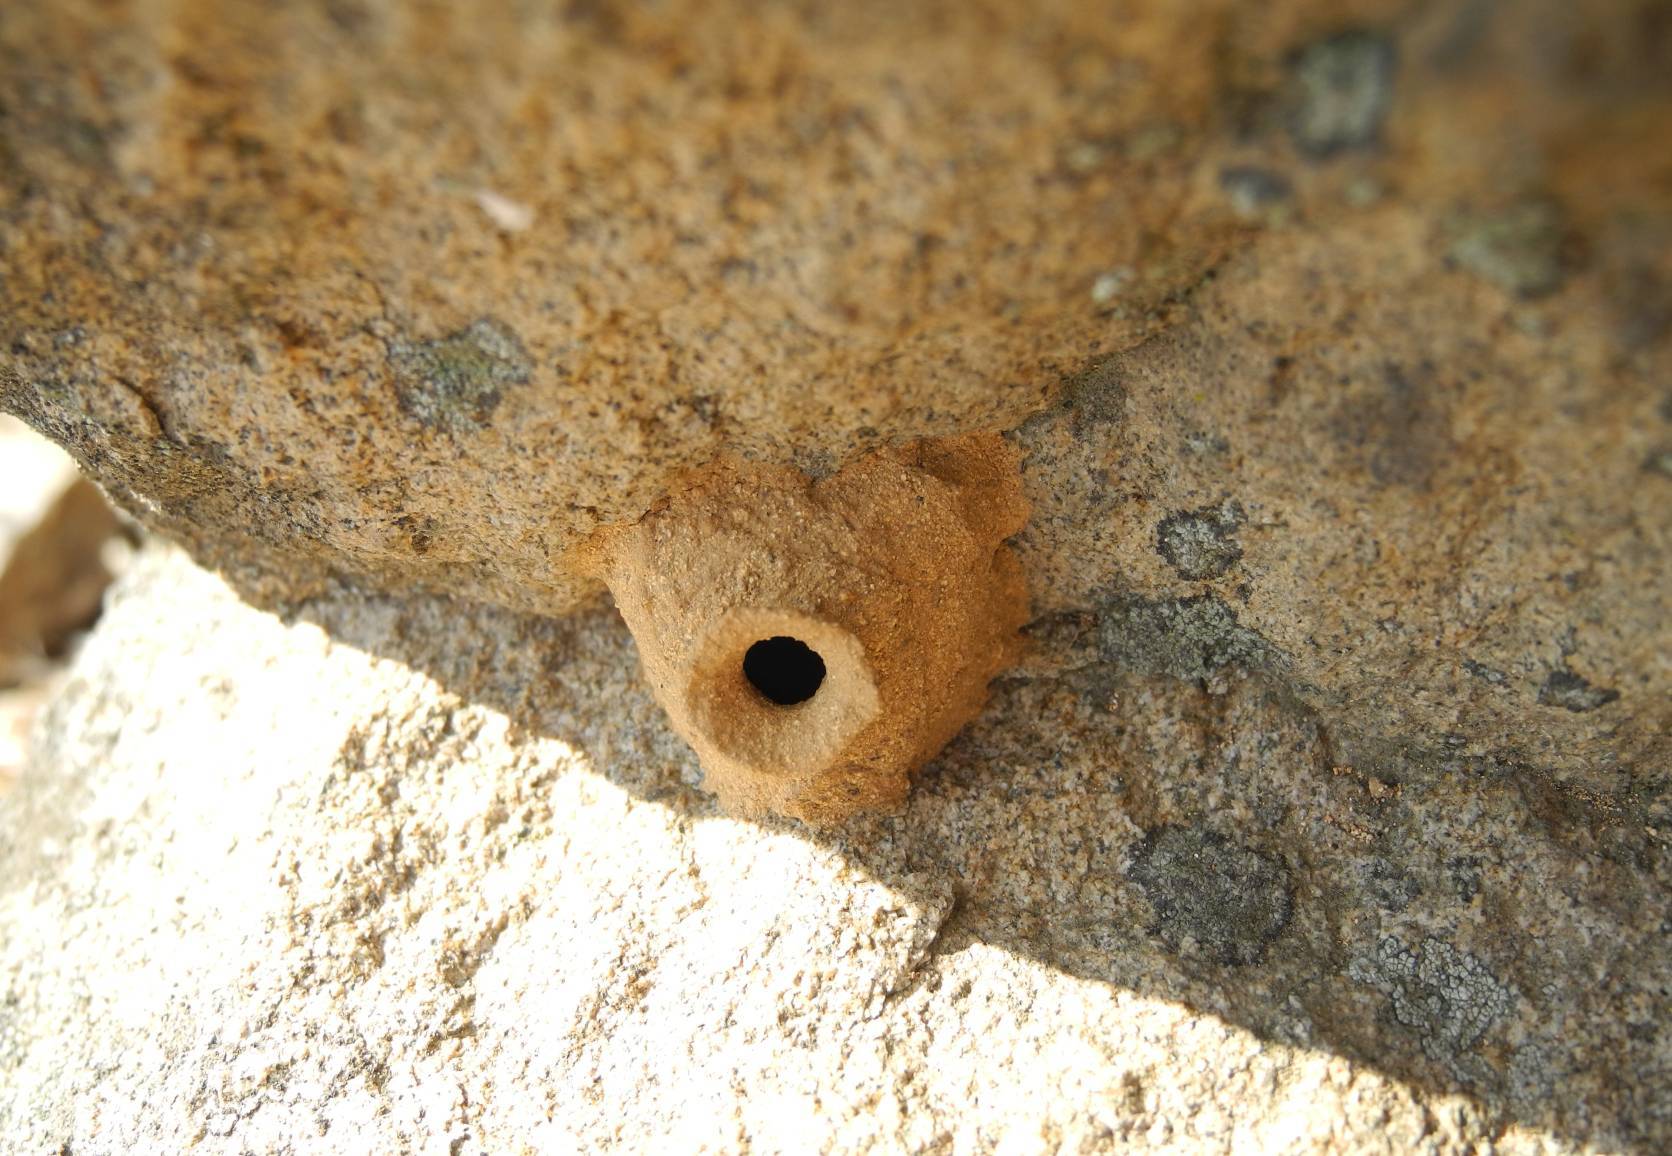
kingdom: Animalia
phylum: Arthropoda
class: Insecta
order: Hymenoptera
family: Eumenidae
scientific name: Eumenidae
